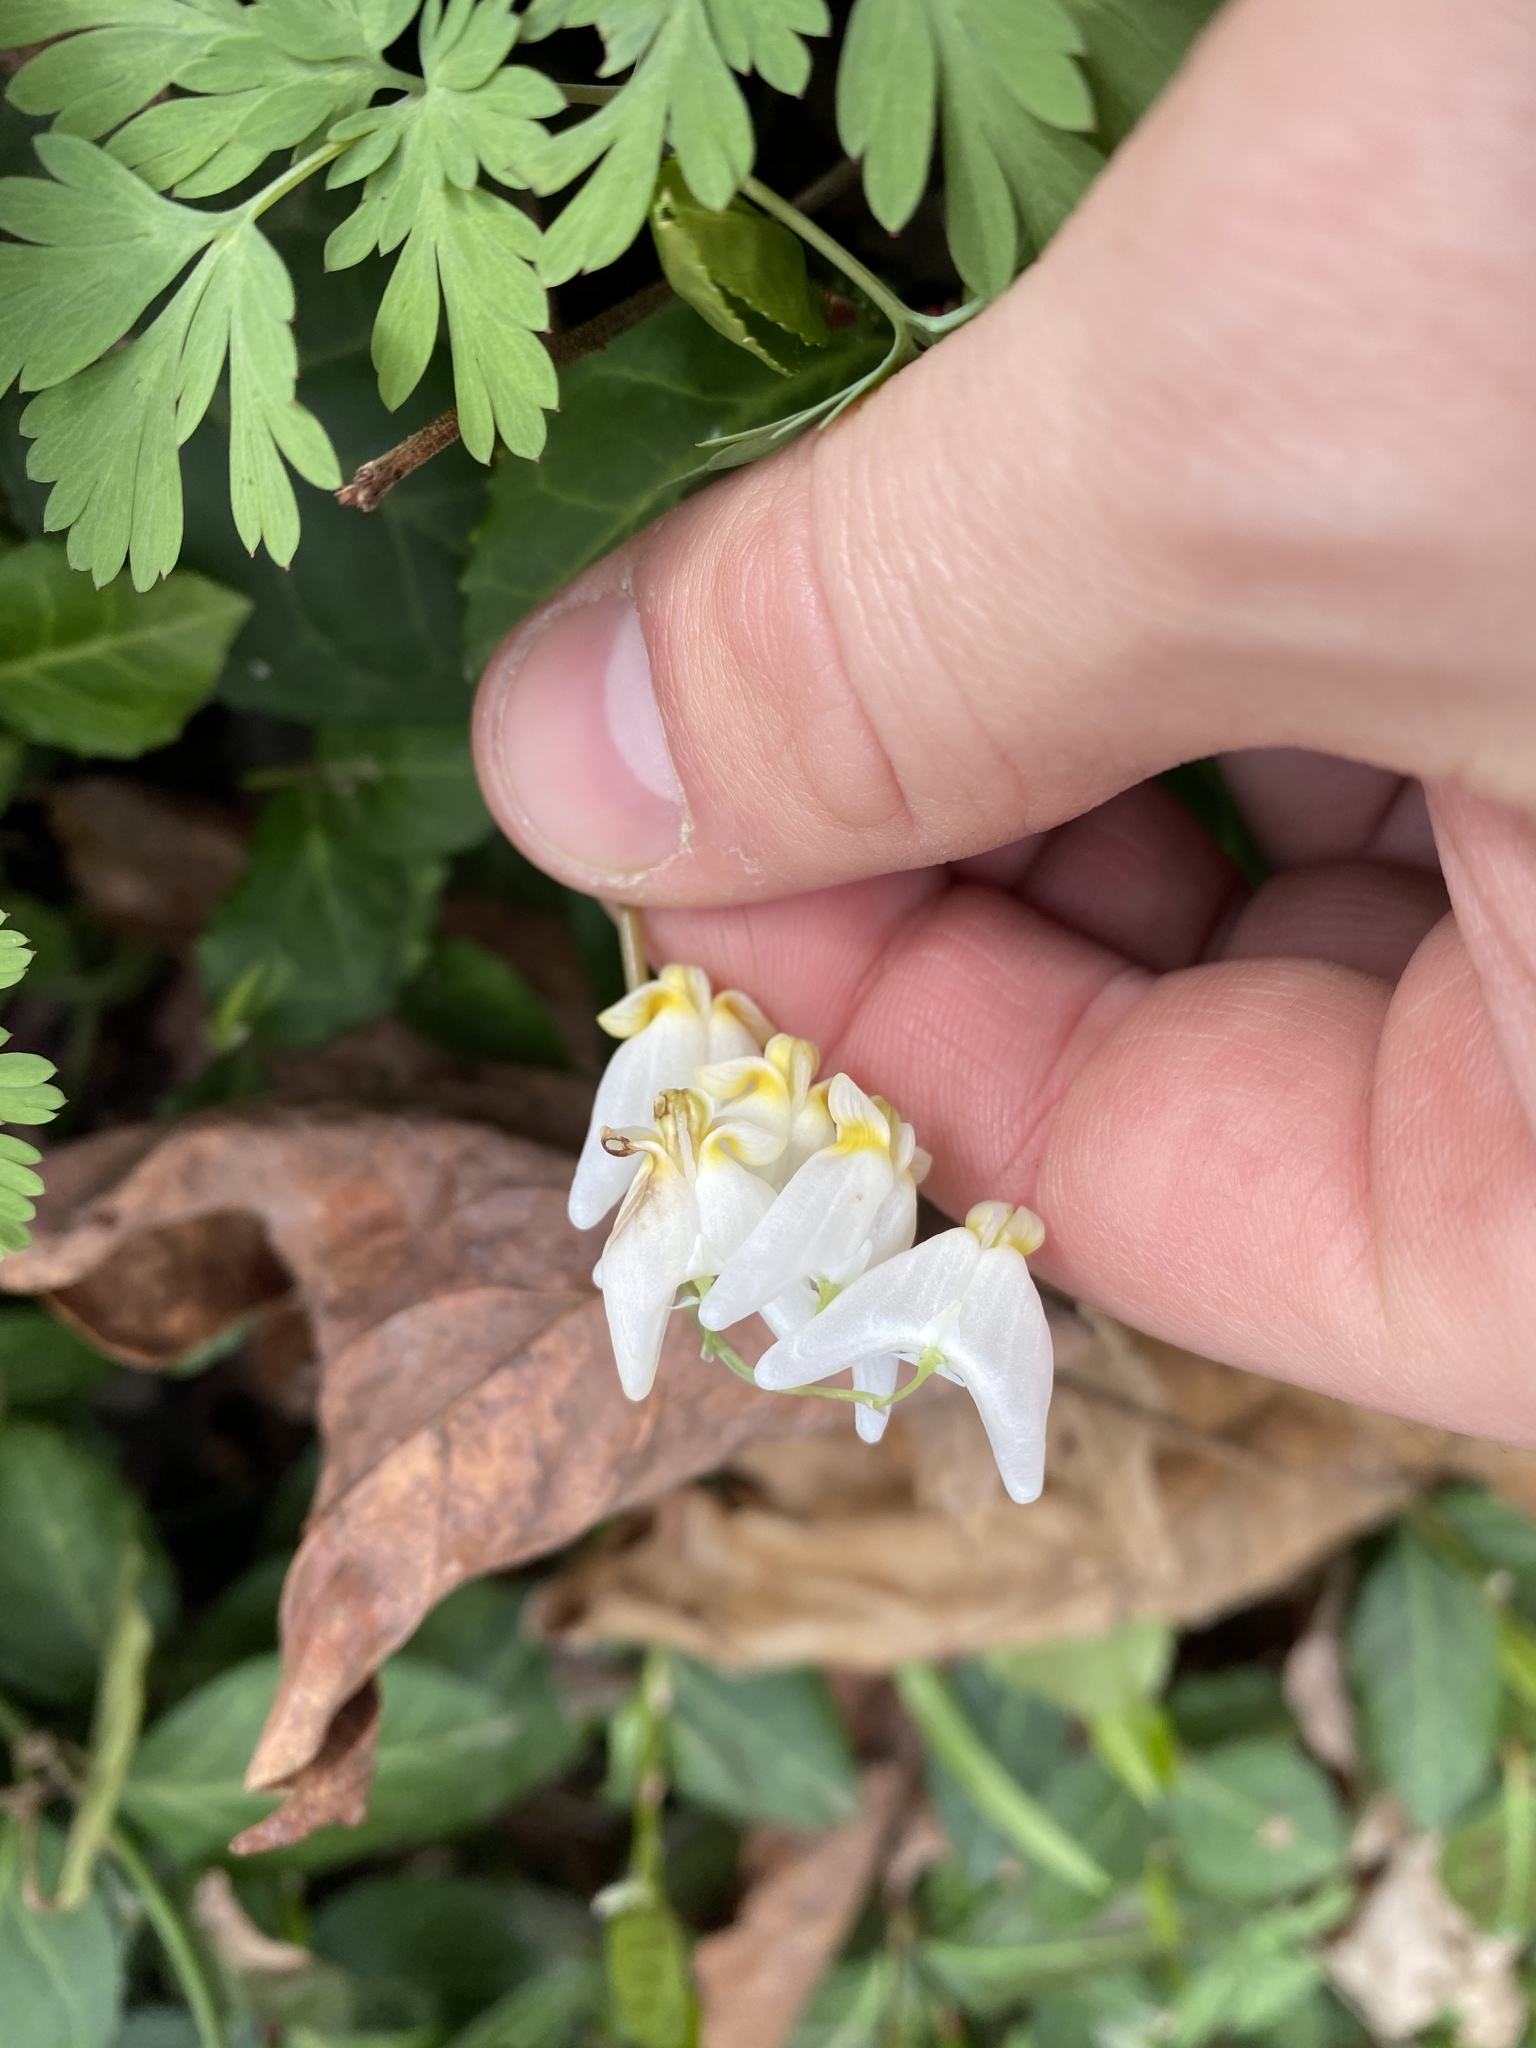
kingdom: Plantae
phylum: Tracheophyta
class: Magnoliopsida
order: Ranunculales
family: Papaveraceae
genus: Dicentra
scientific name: Dicentra cucullaria
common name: Dutchman's breeches
